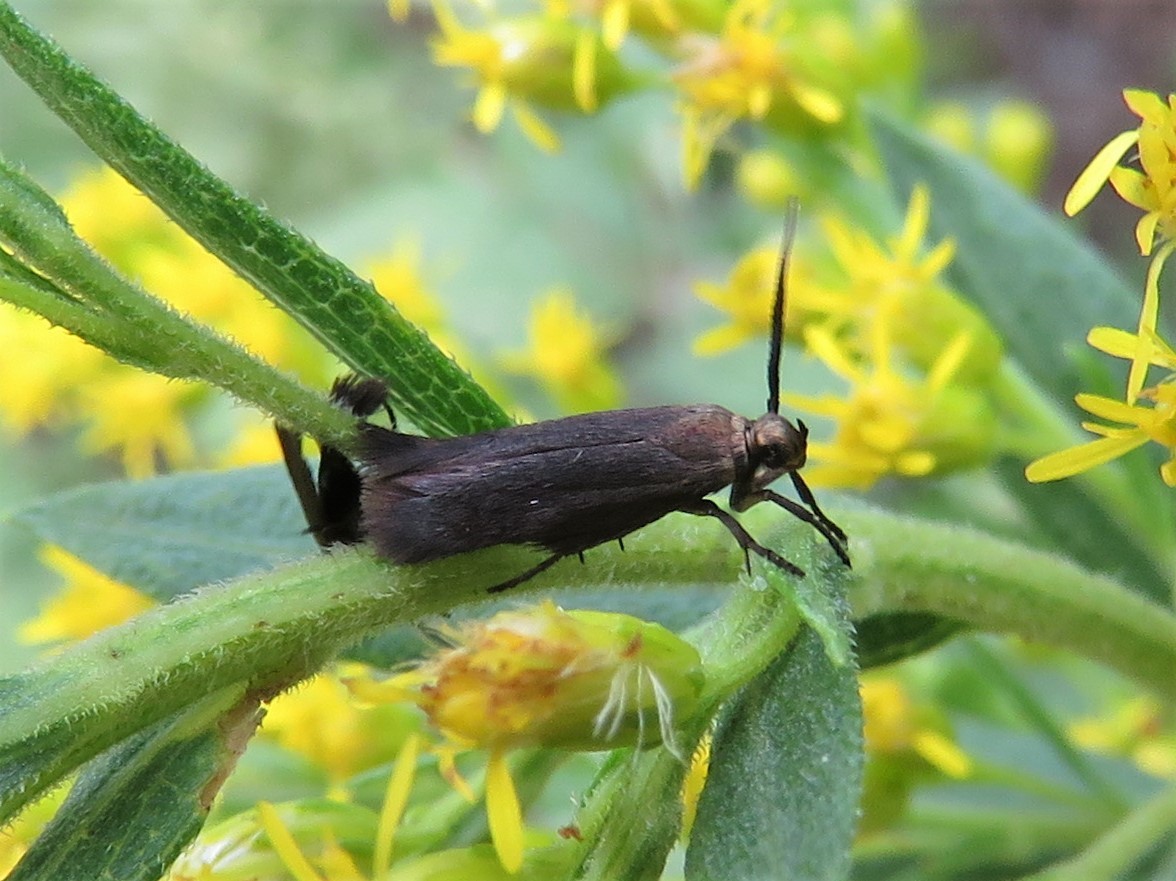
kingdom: Animalia
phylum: Arthropoda
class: Insecta
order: Lepidoptera
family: Scythrididae
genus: Scythris
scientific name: Scythris fuscicomella
